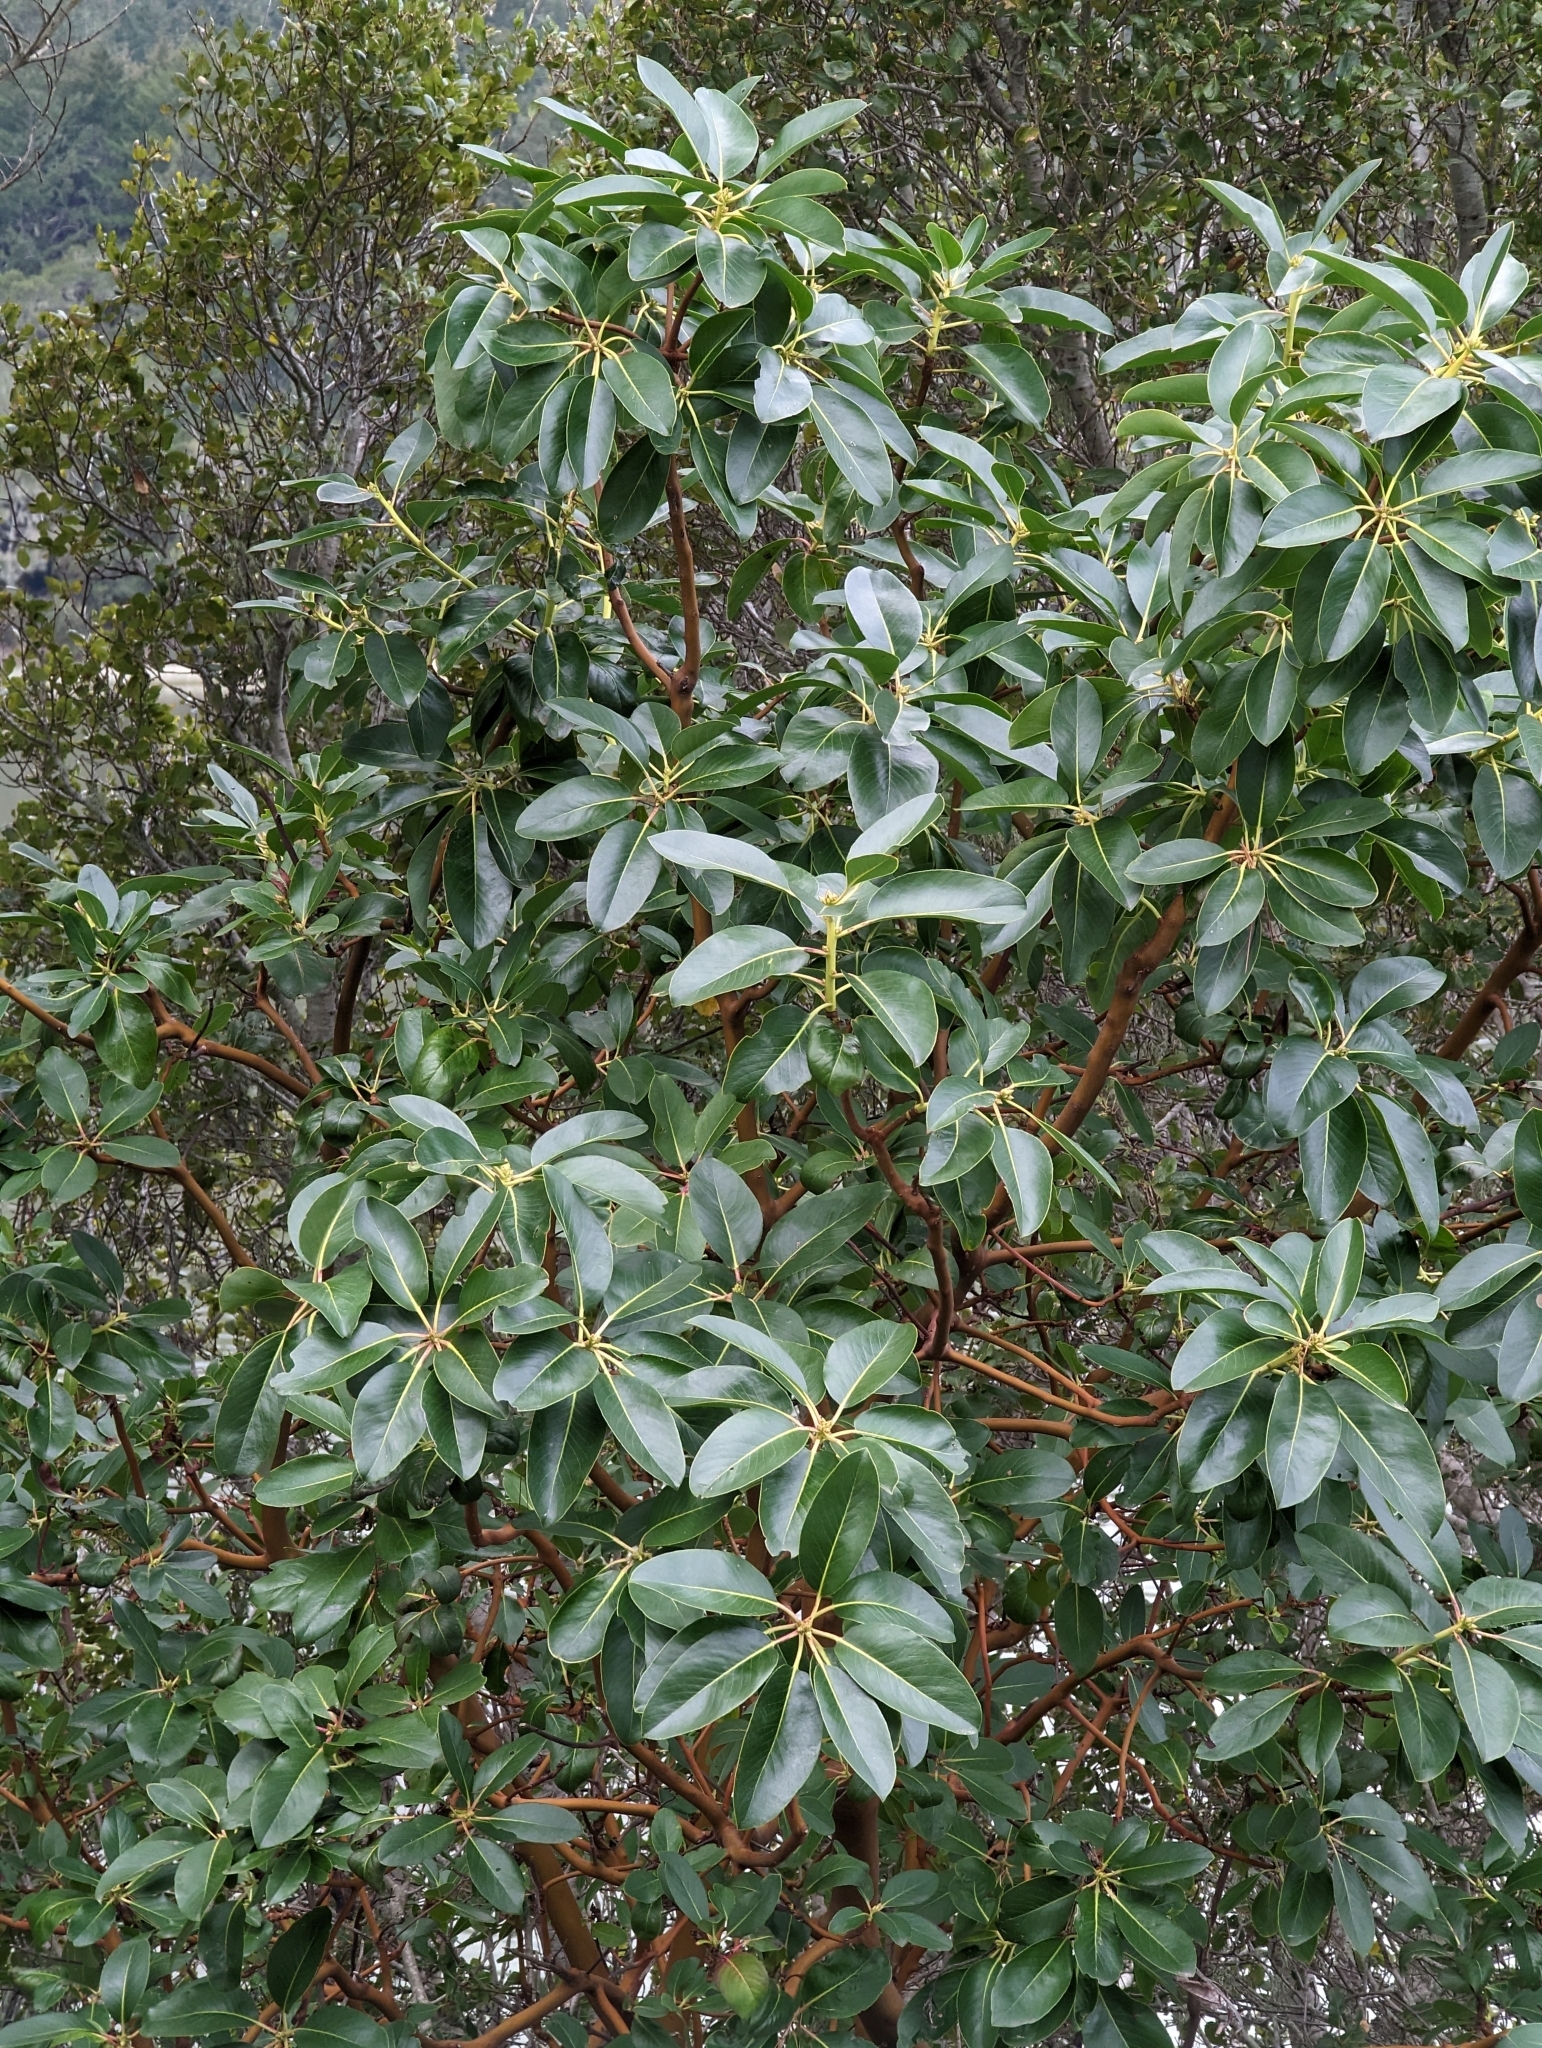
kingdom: Plantae
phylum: Tracheophyta
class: Magnoliopsida
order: Ericales
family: Ericaceae
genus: Arbutus
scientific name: Arbutus menziesii
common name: Pacific madrone
